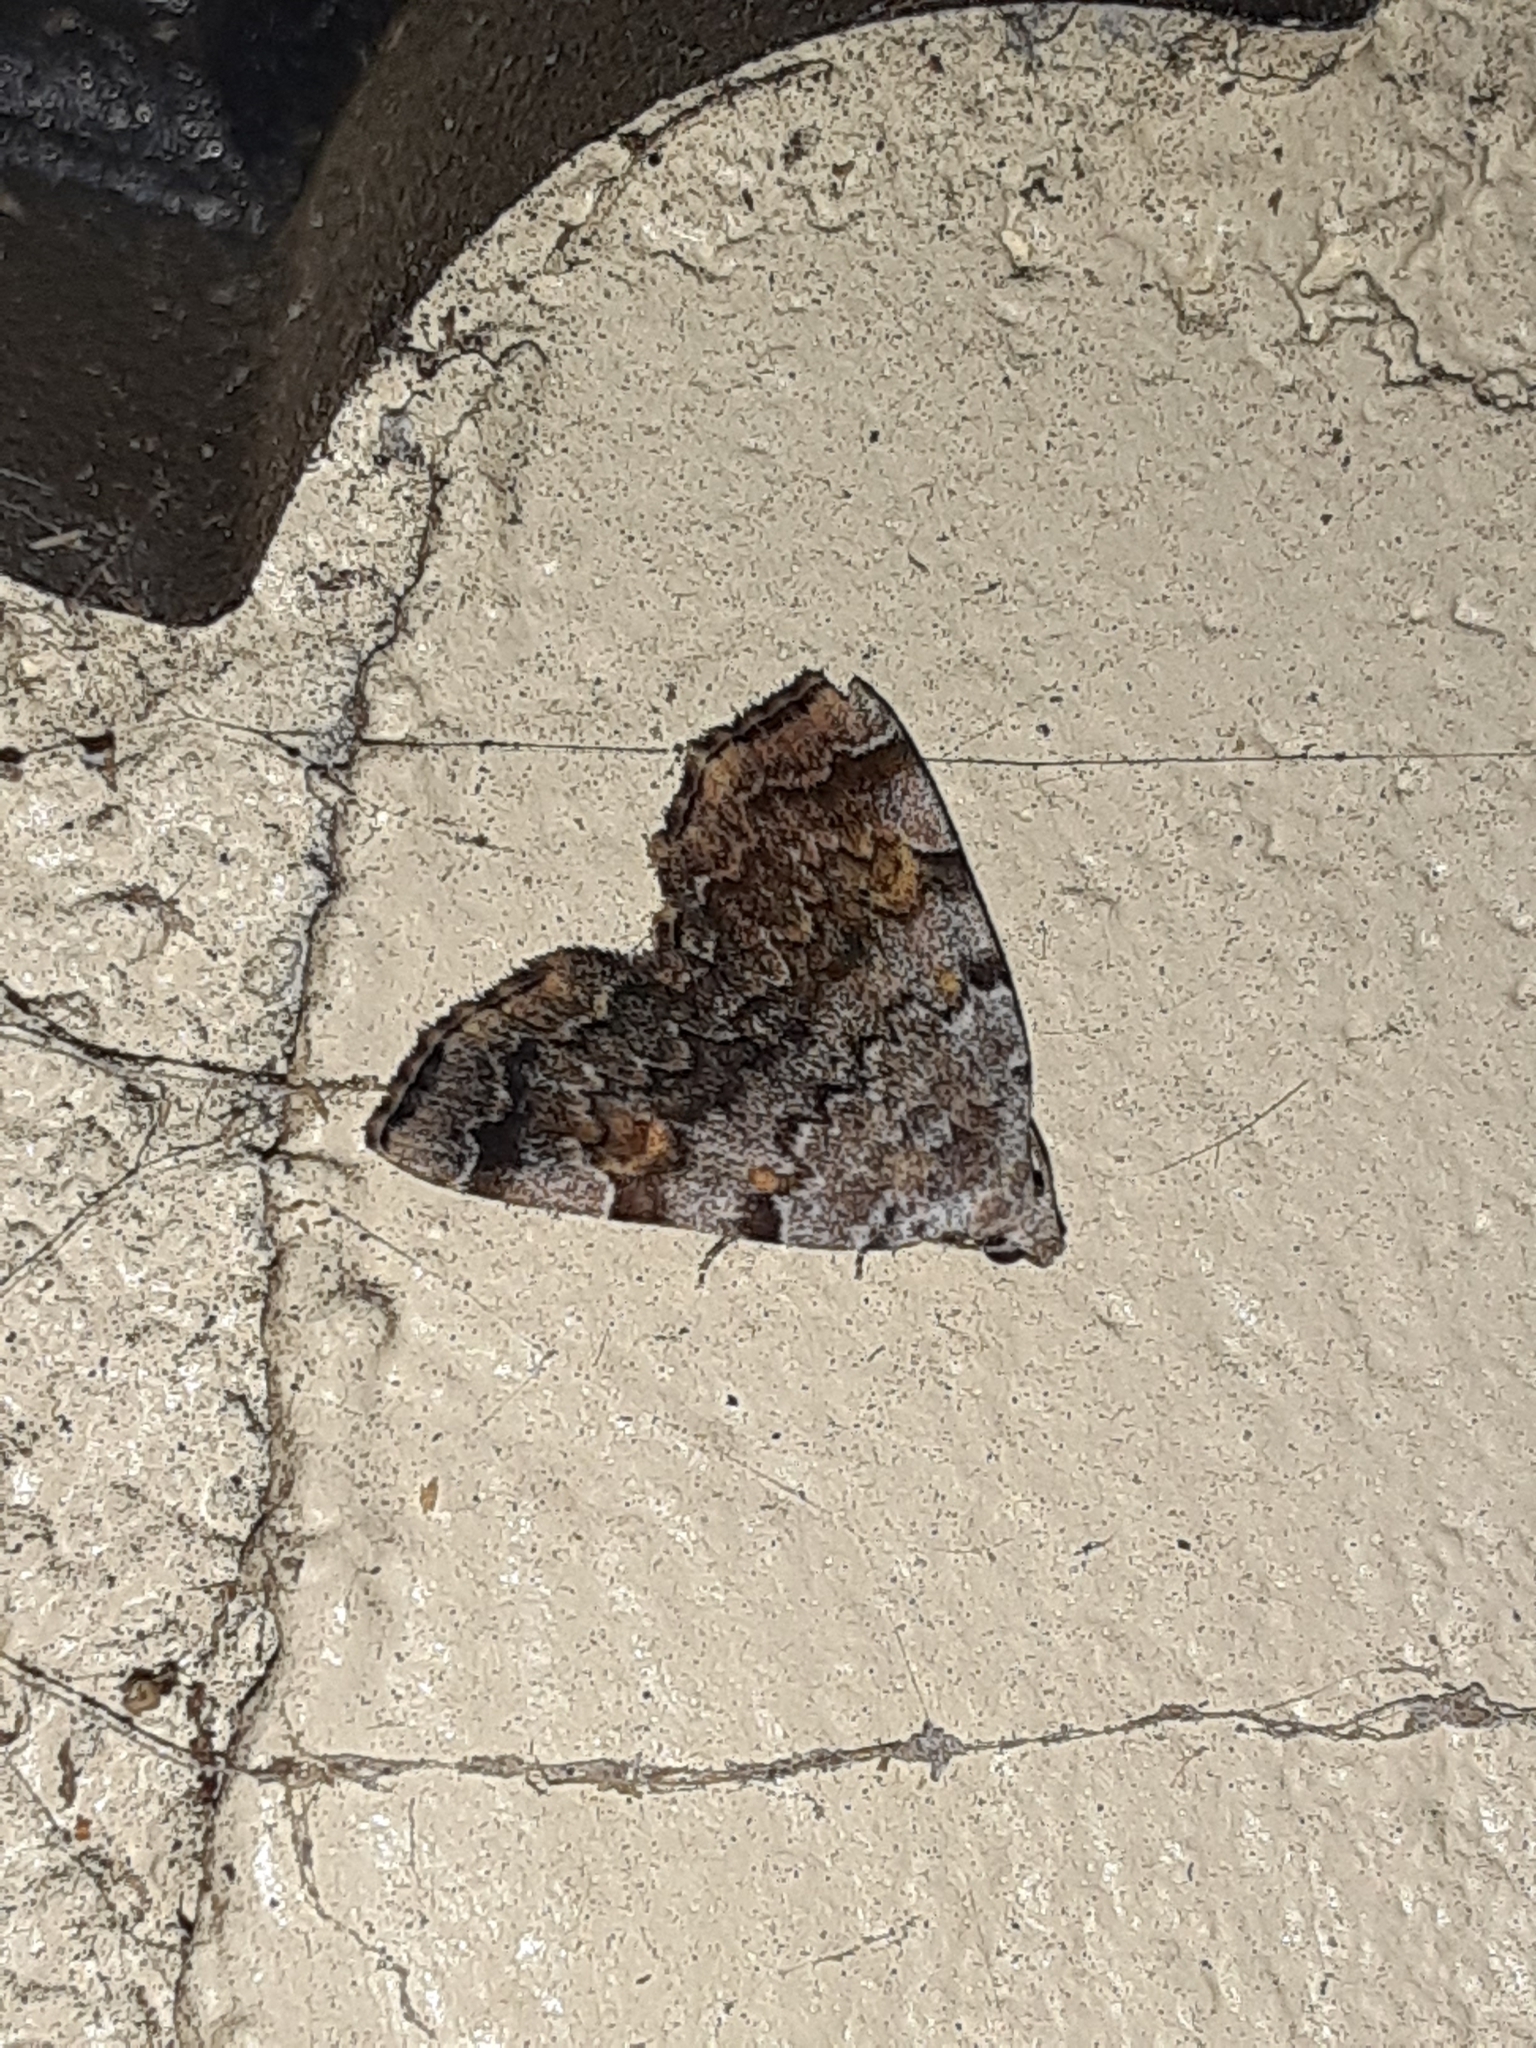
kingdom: Animalia
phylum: Arthropoda
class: Insecta
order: Lepidoptera
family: Erebidae
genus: Idia
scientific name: Idia americalis
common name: American idia moth
